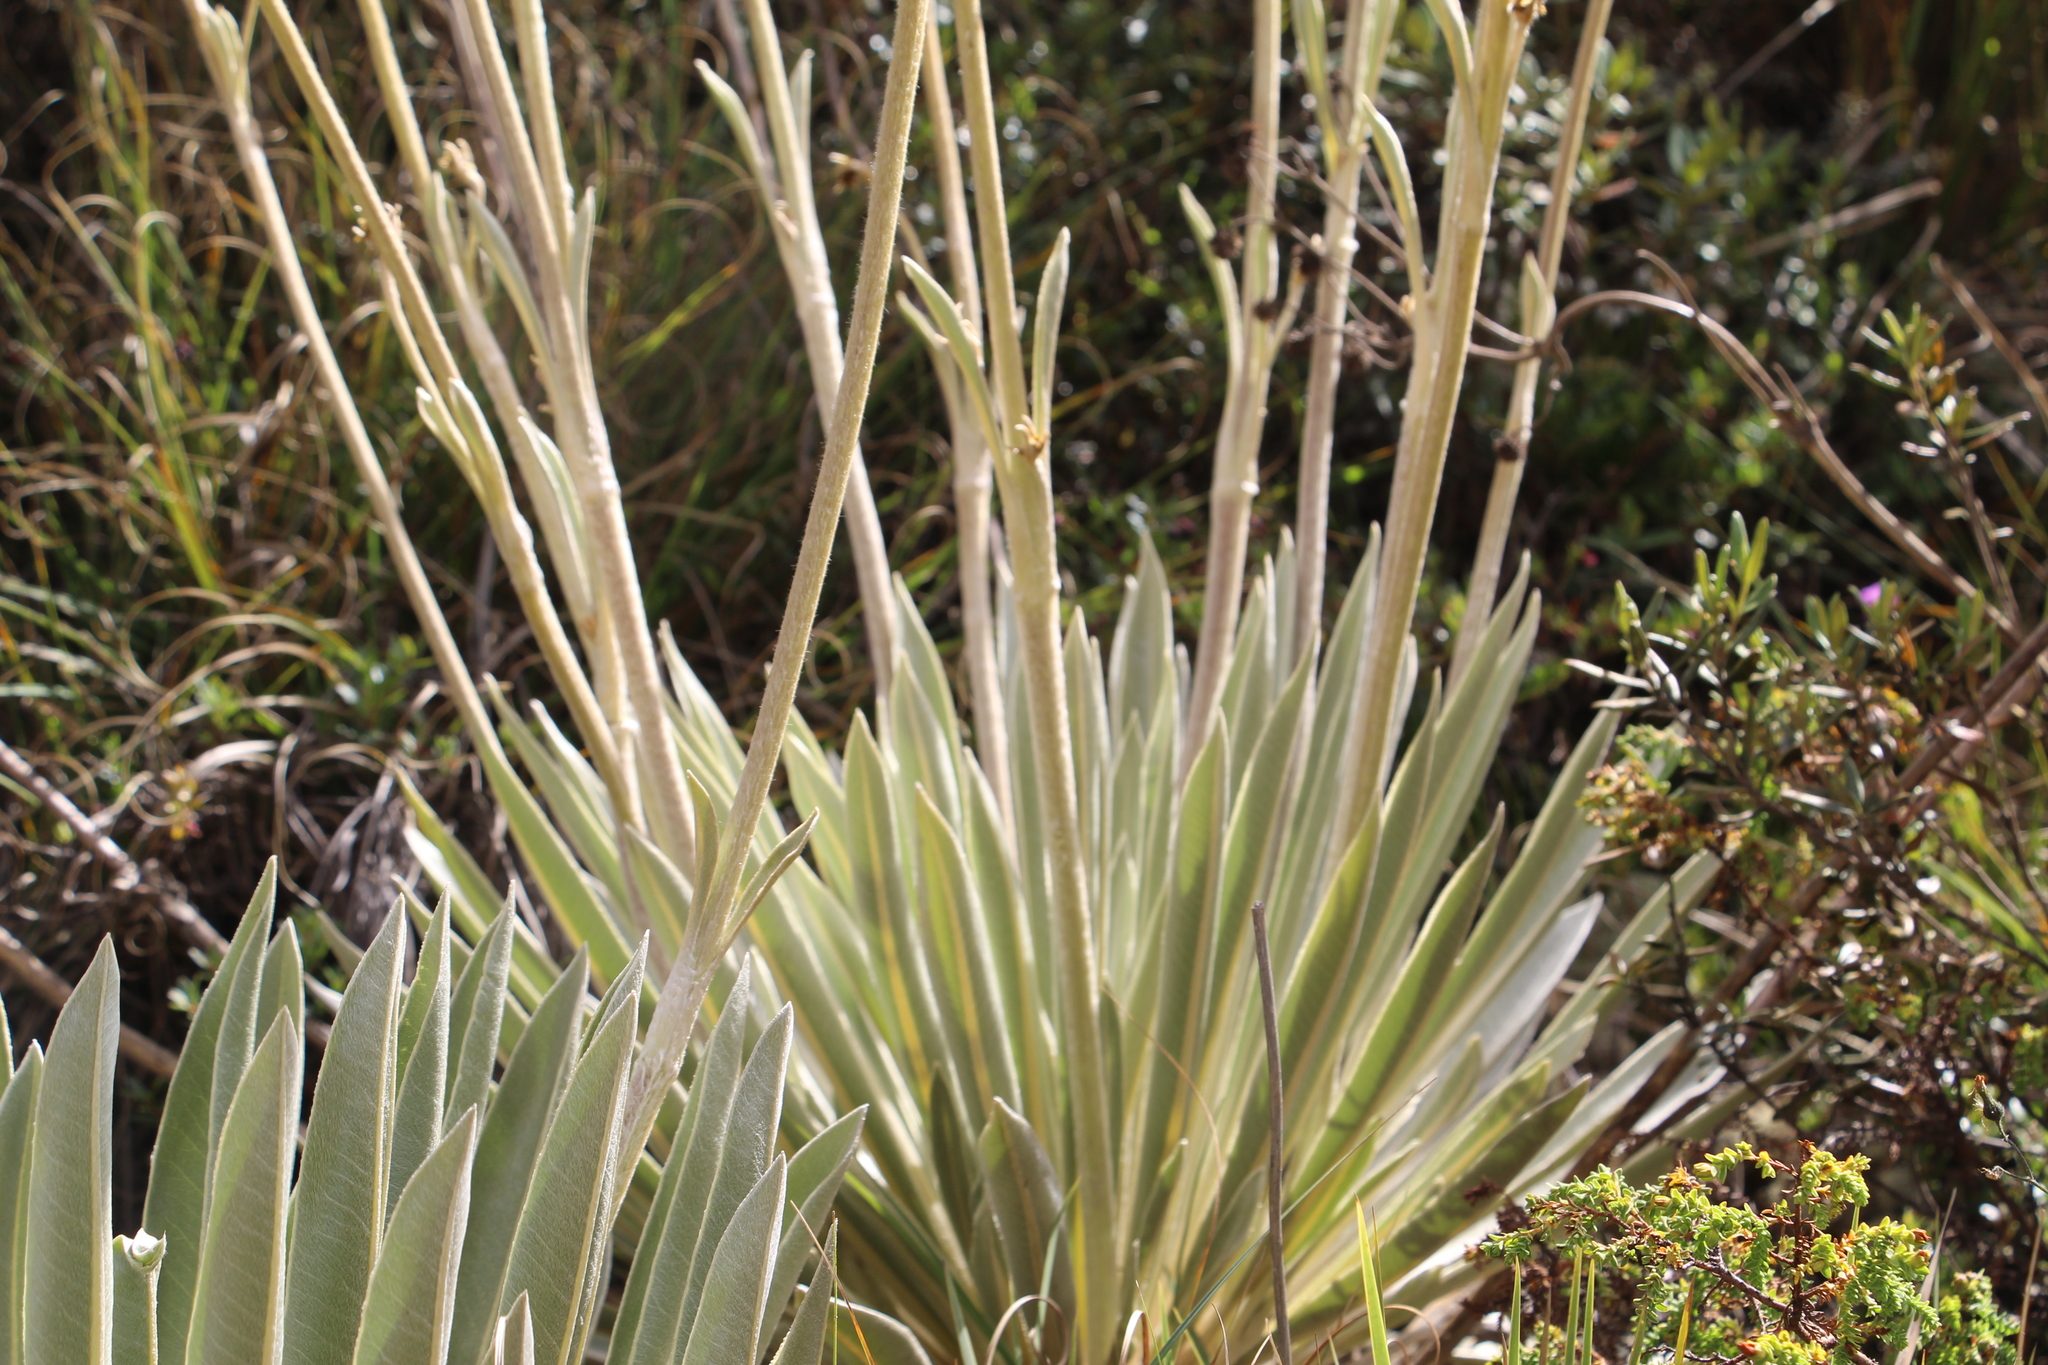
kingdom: Plantae
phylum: Tracheophyta
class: Magnoliopsida
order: Asterales
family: Asteraceae
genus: Espeletia
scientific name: Espeletia boyacensis
